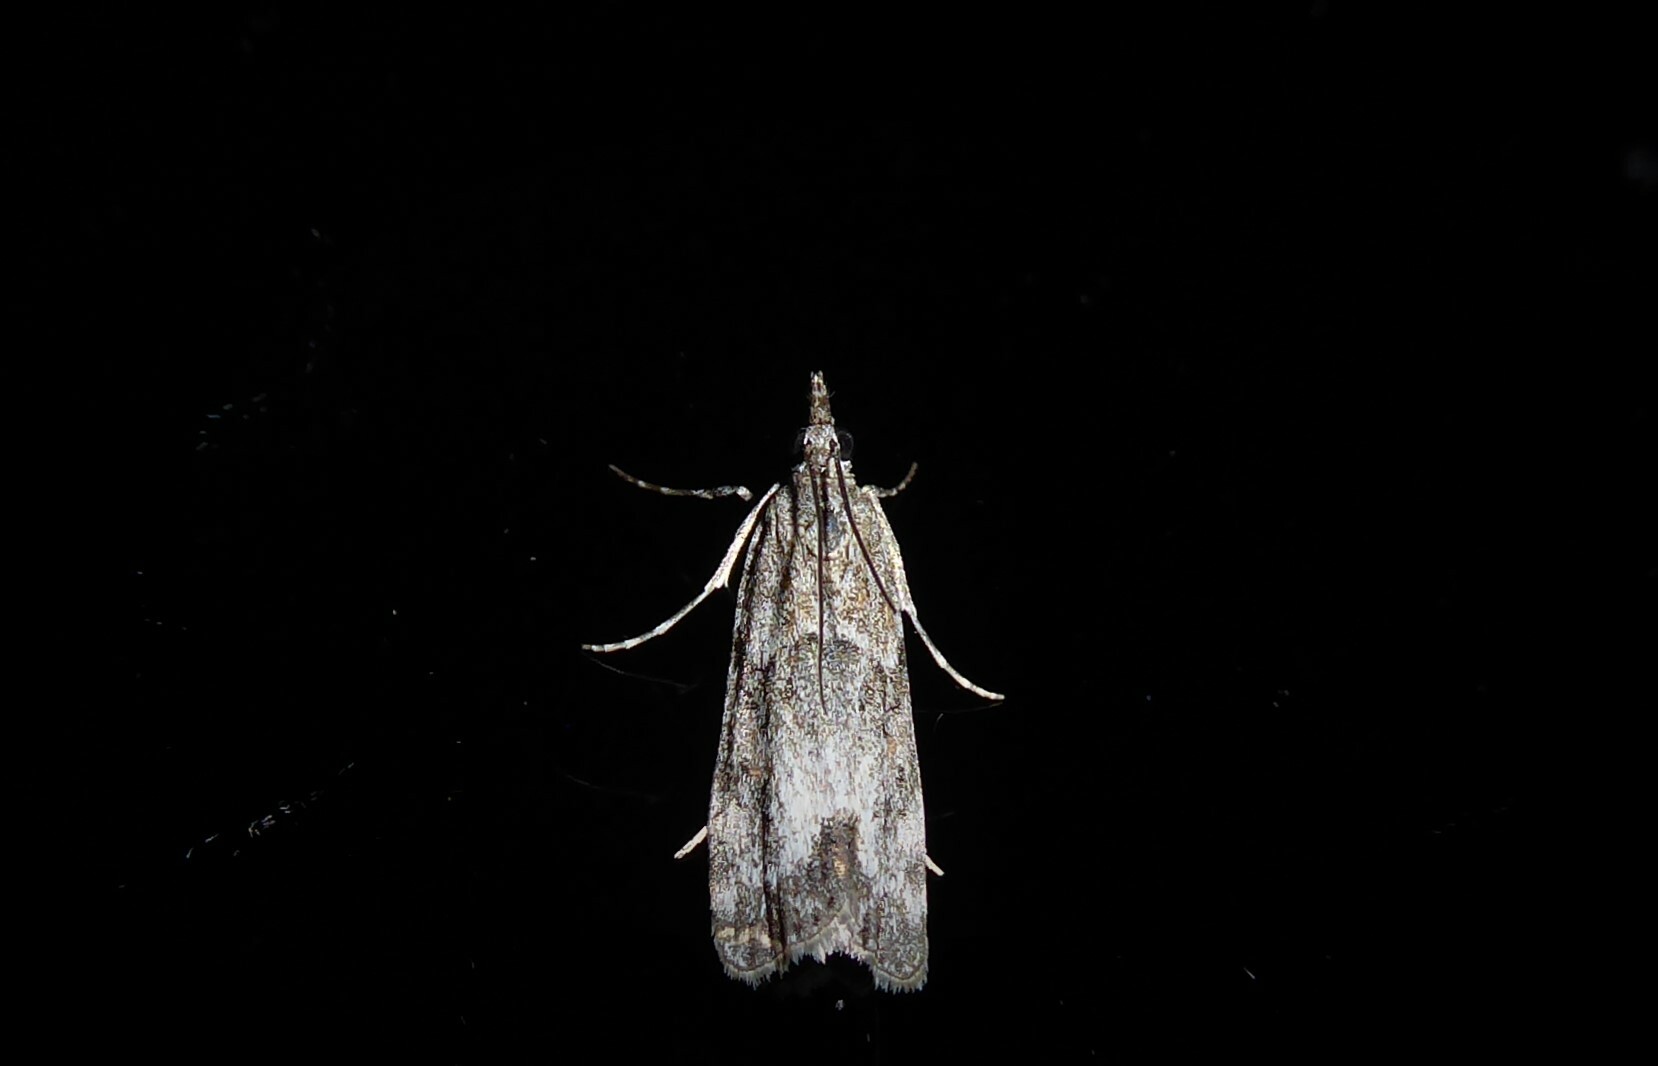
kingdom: Animalia
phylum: Arthropoda
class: Insecta
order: Lepidoptera
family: Crambidae
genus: Eudonia
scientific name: Eudonia rakaiensis
